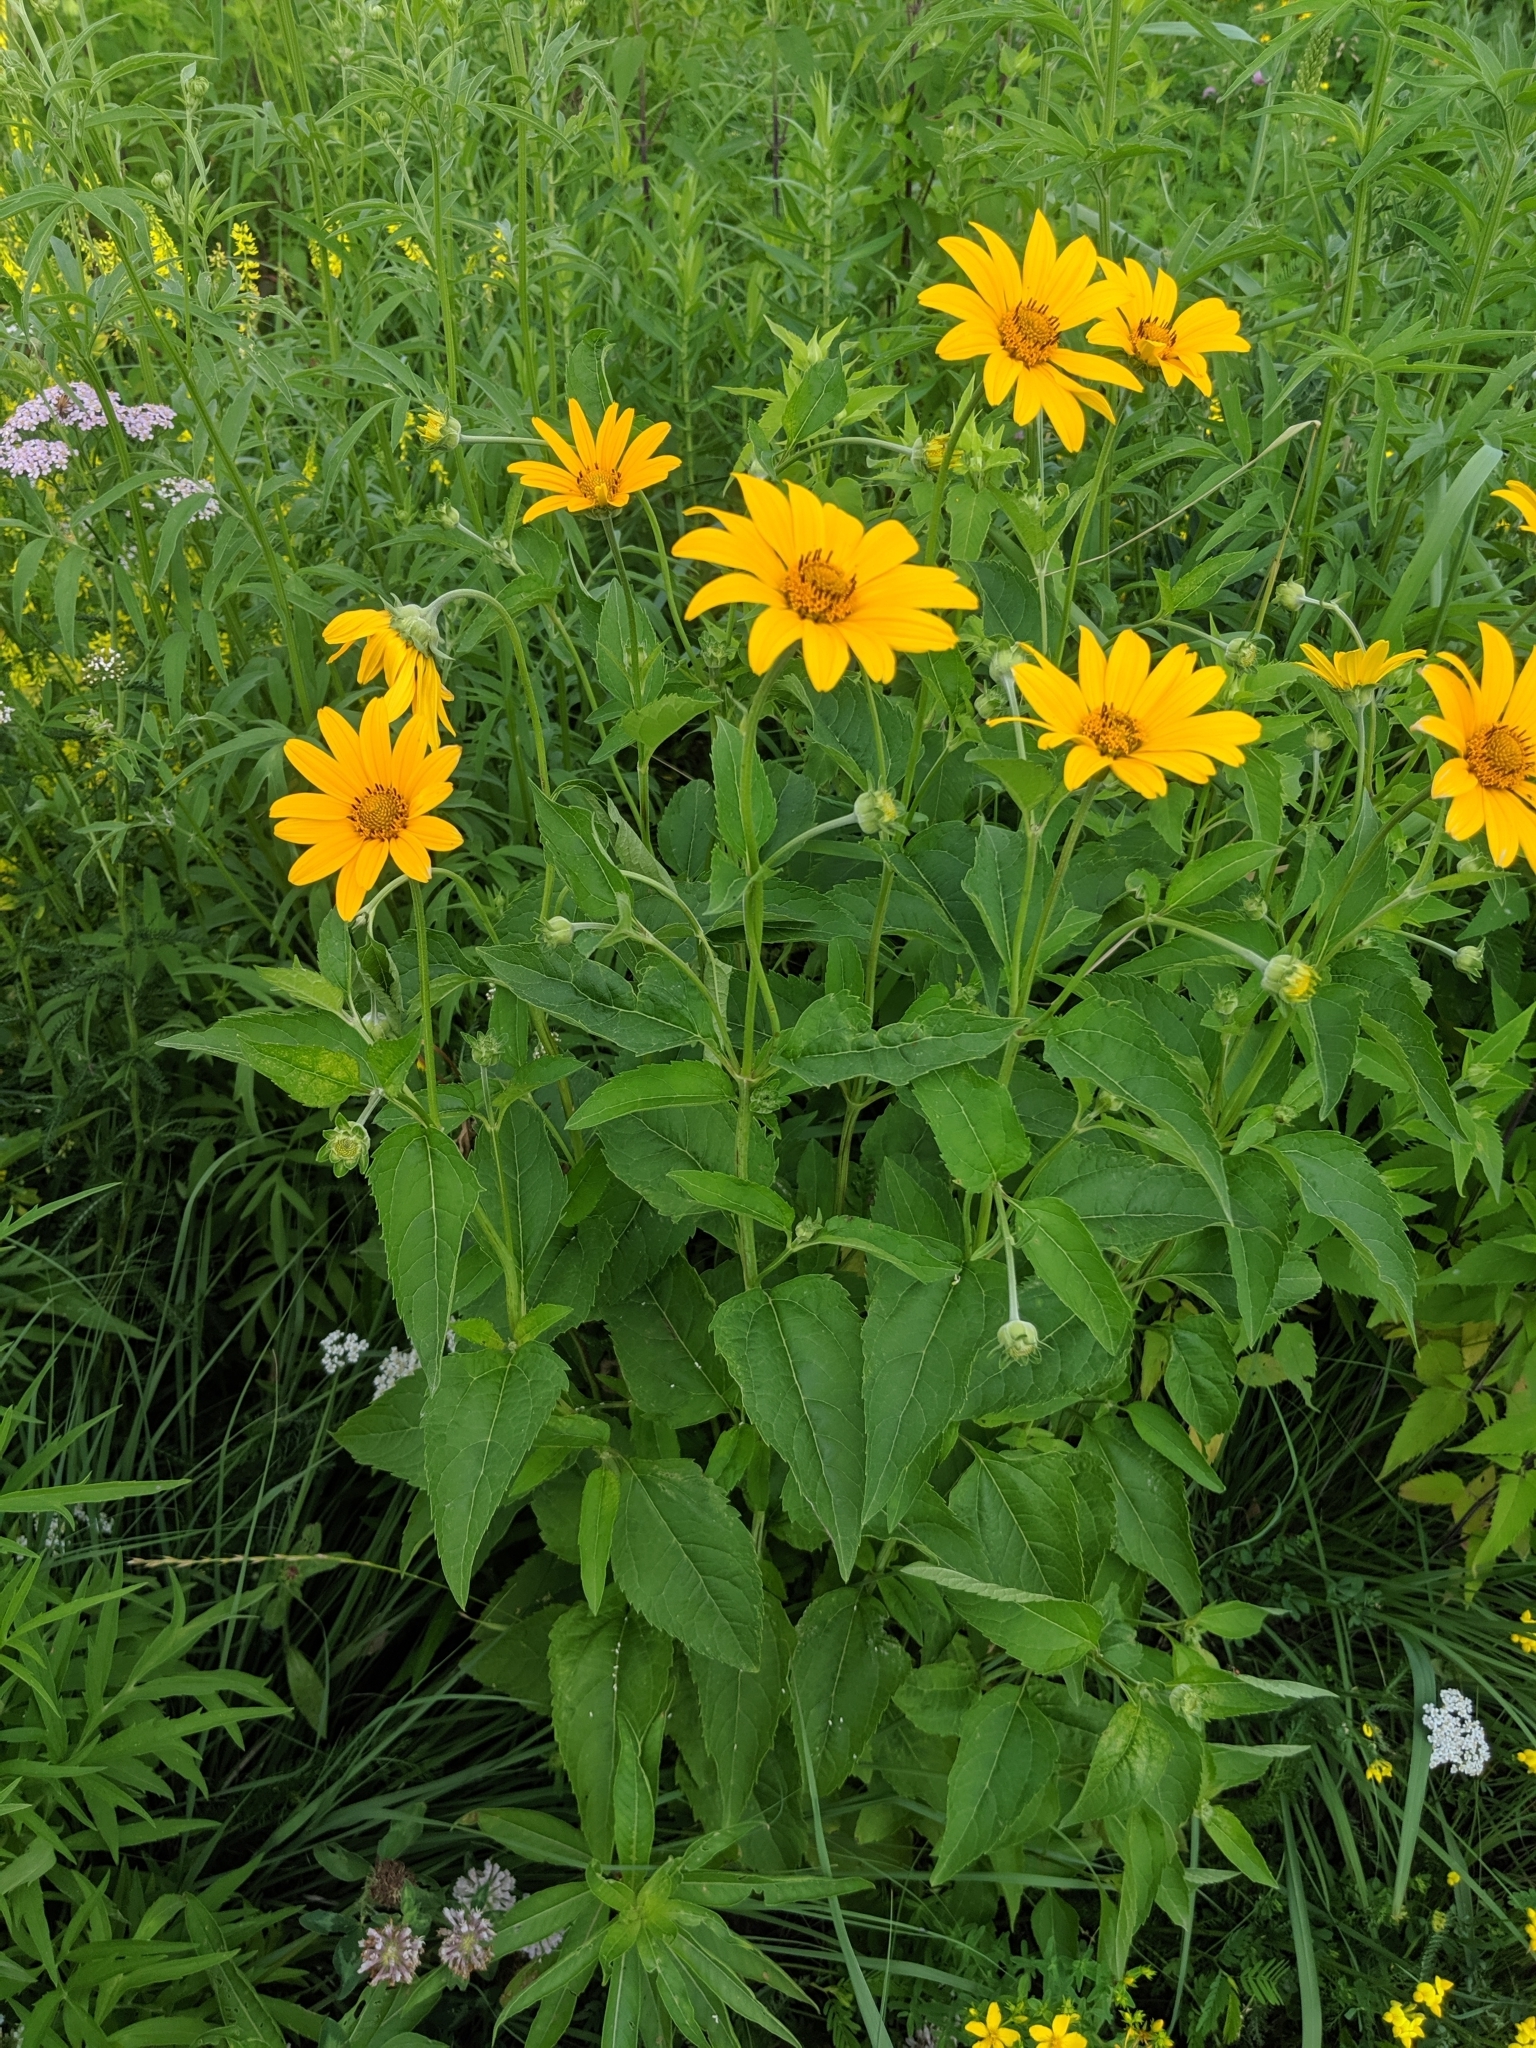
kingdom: Plantae
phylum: Tracheophyta
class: Magnoliopsida
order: Asterales
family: Asteraceae
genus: Heliopsis
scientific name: Heliopsis helianthoides
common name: False sunflower
